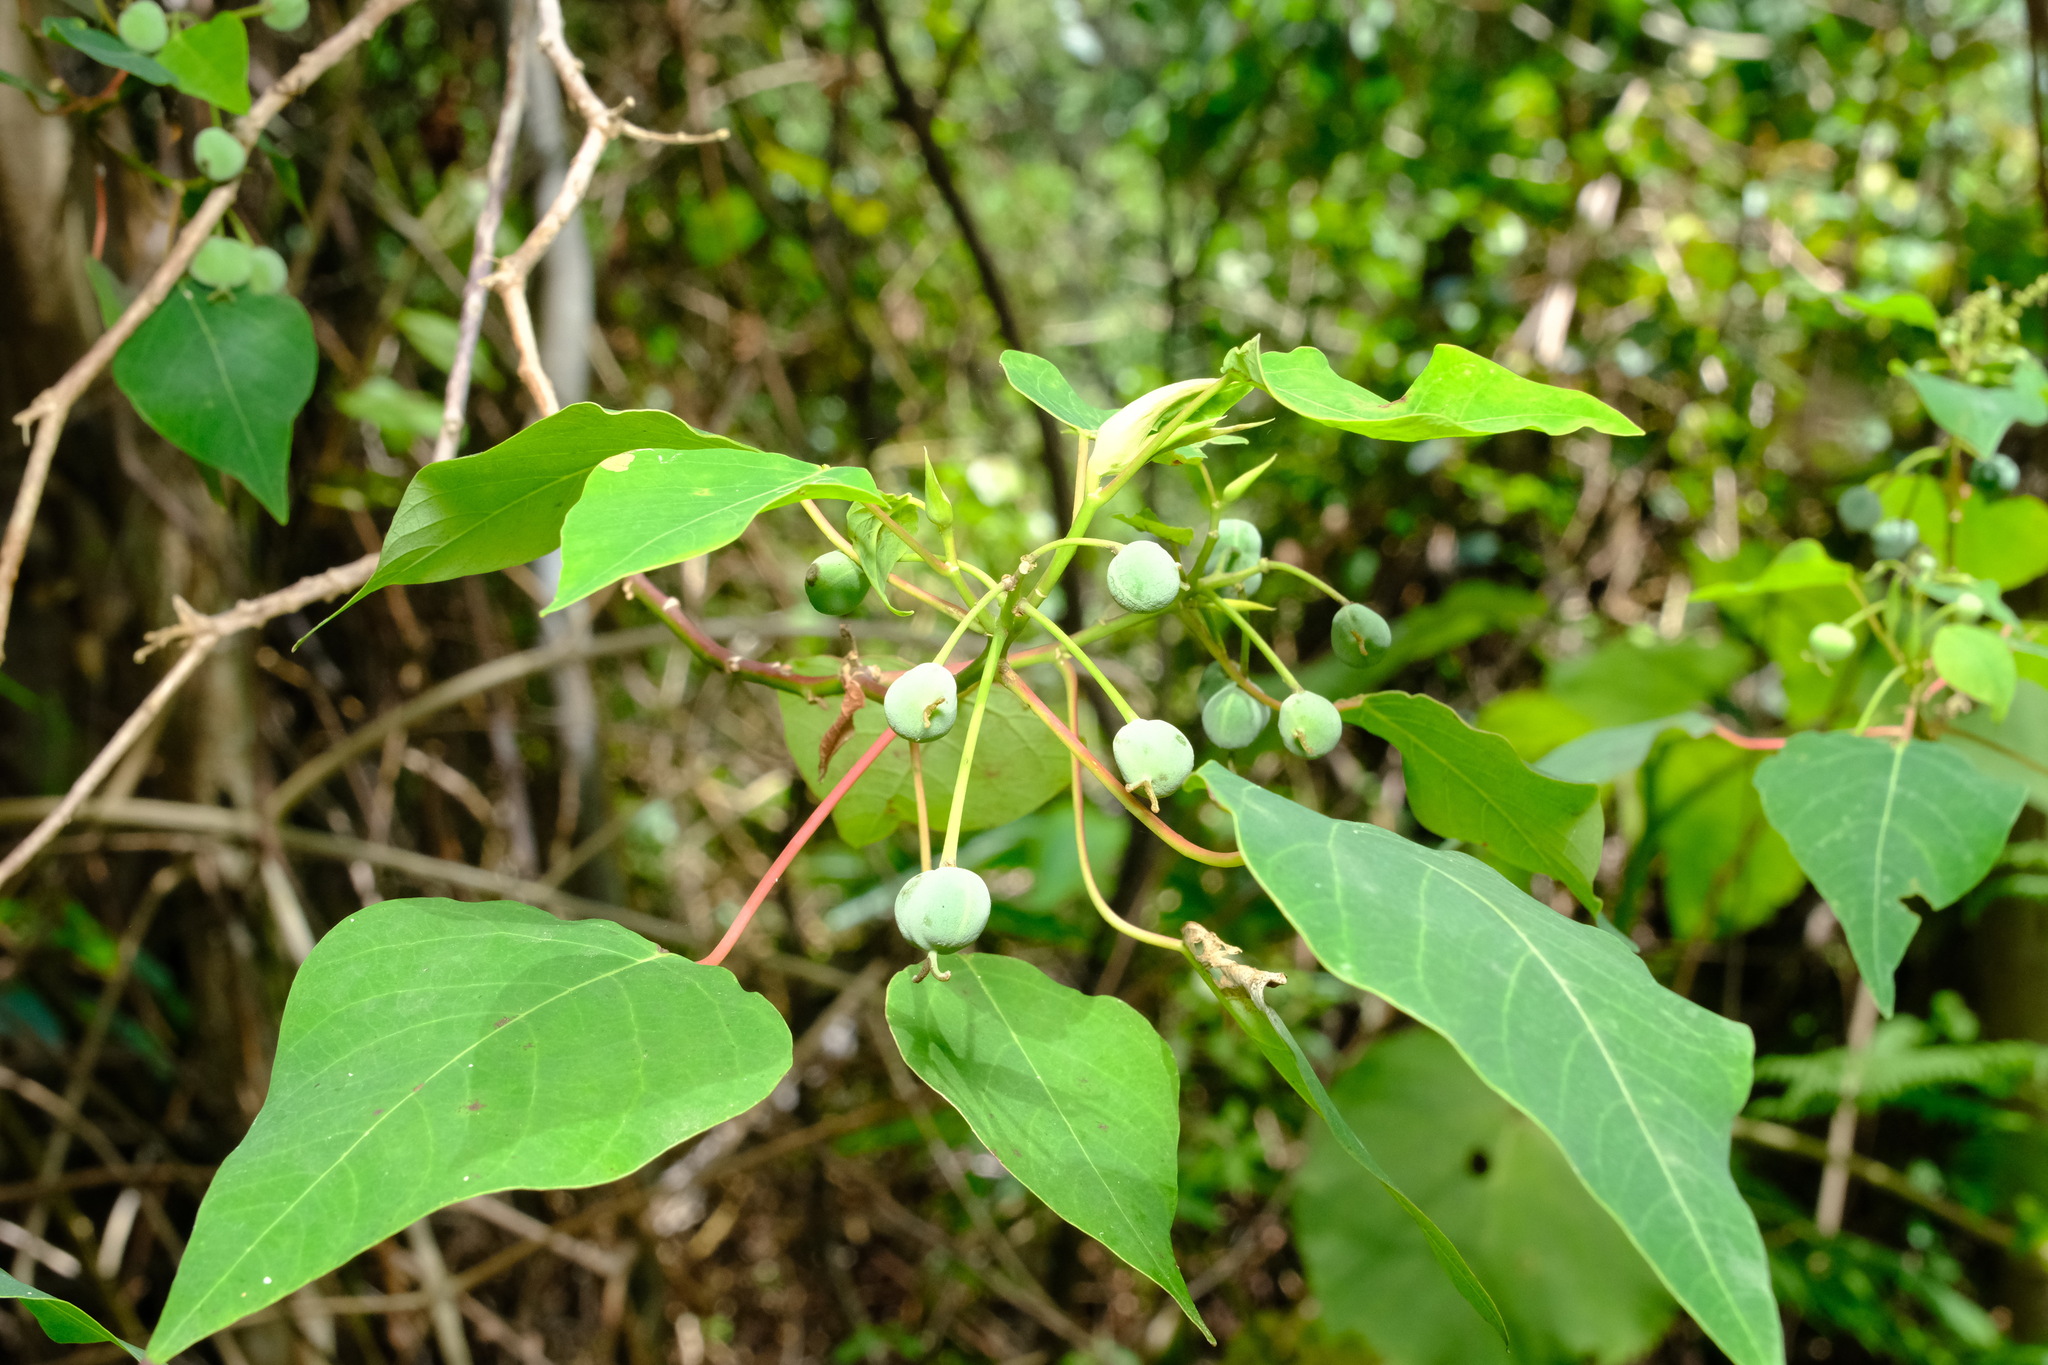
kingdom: Plantae
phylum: Tracheophyta
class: Magnoliopsida
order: Malpighiales
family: Euphorbiaceae
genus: Homalanthus
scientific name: Homalanthus populifolius
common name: Queensland poplar
